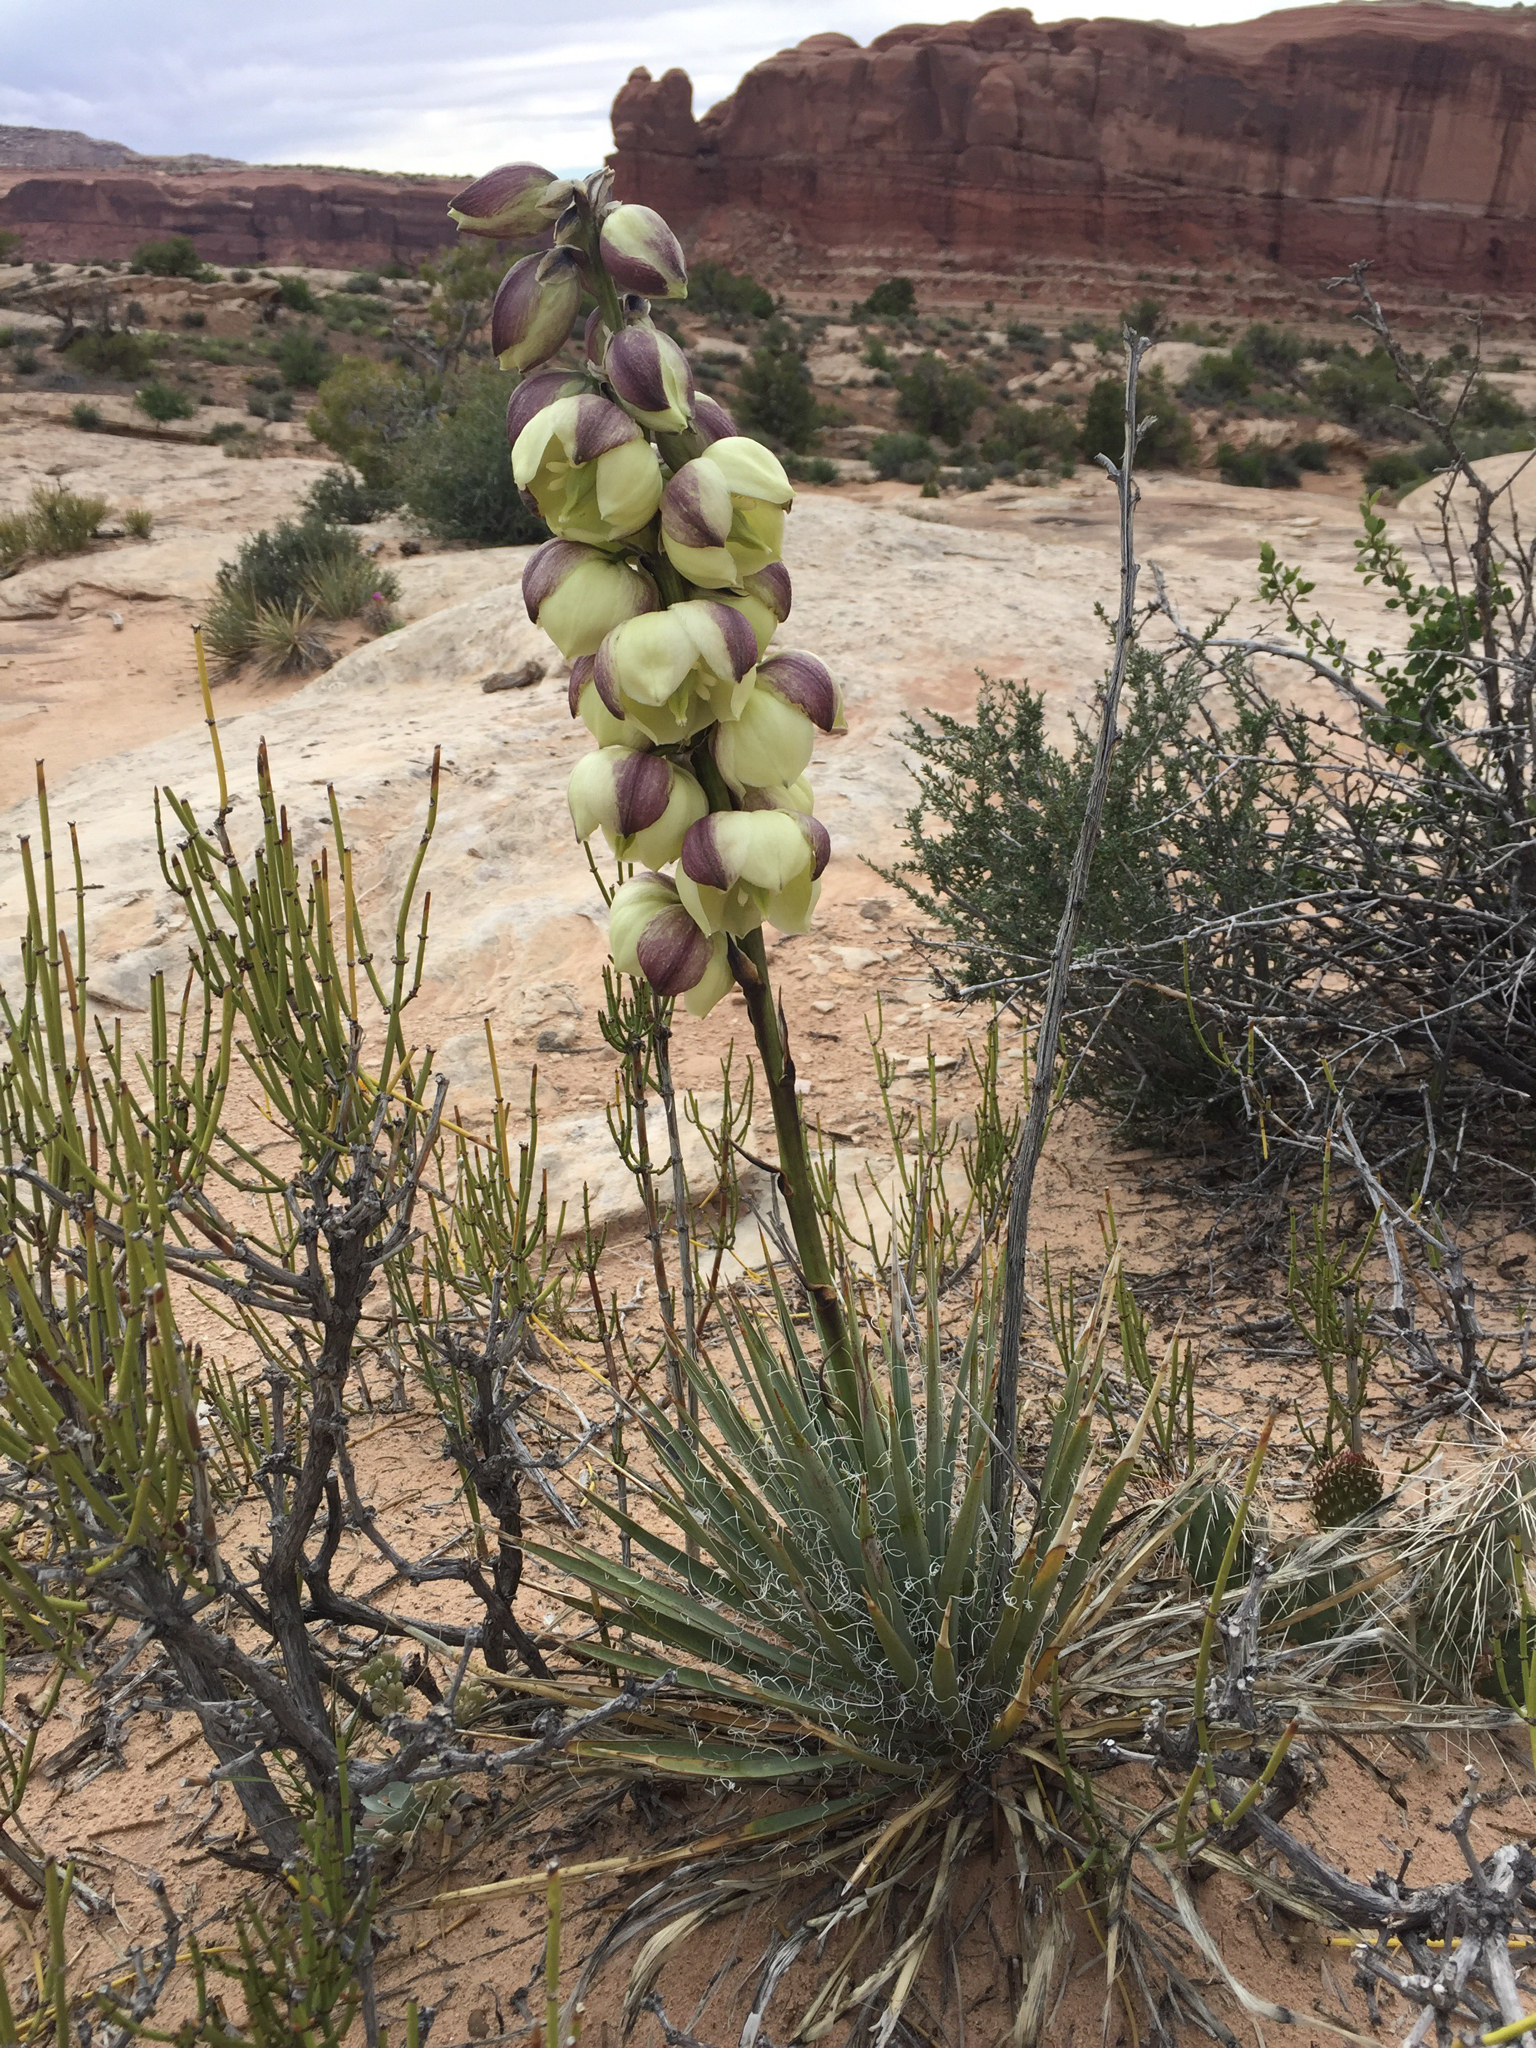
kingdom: Plantae
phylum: Tracheophyta
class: Liliopsida
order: Asparagales
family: Asparagaceae
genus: Yucca
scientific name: Yucca harrimaniae
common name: Harriman's yucca
